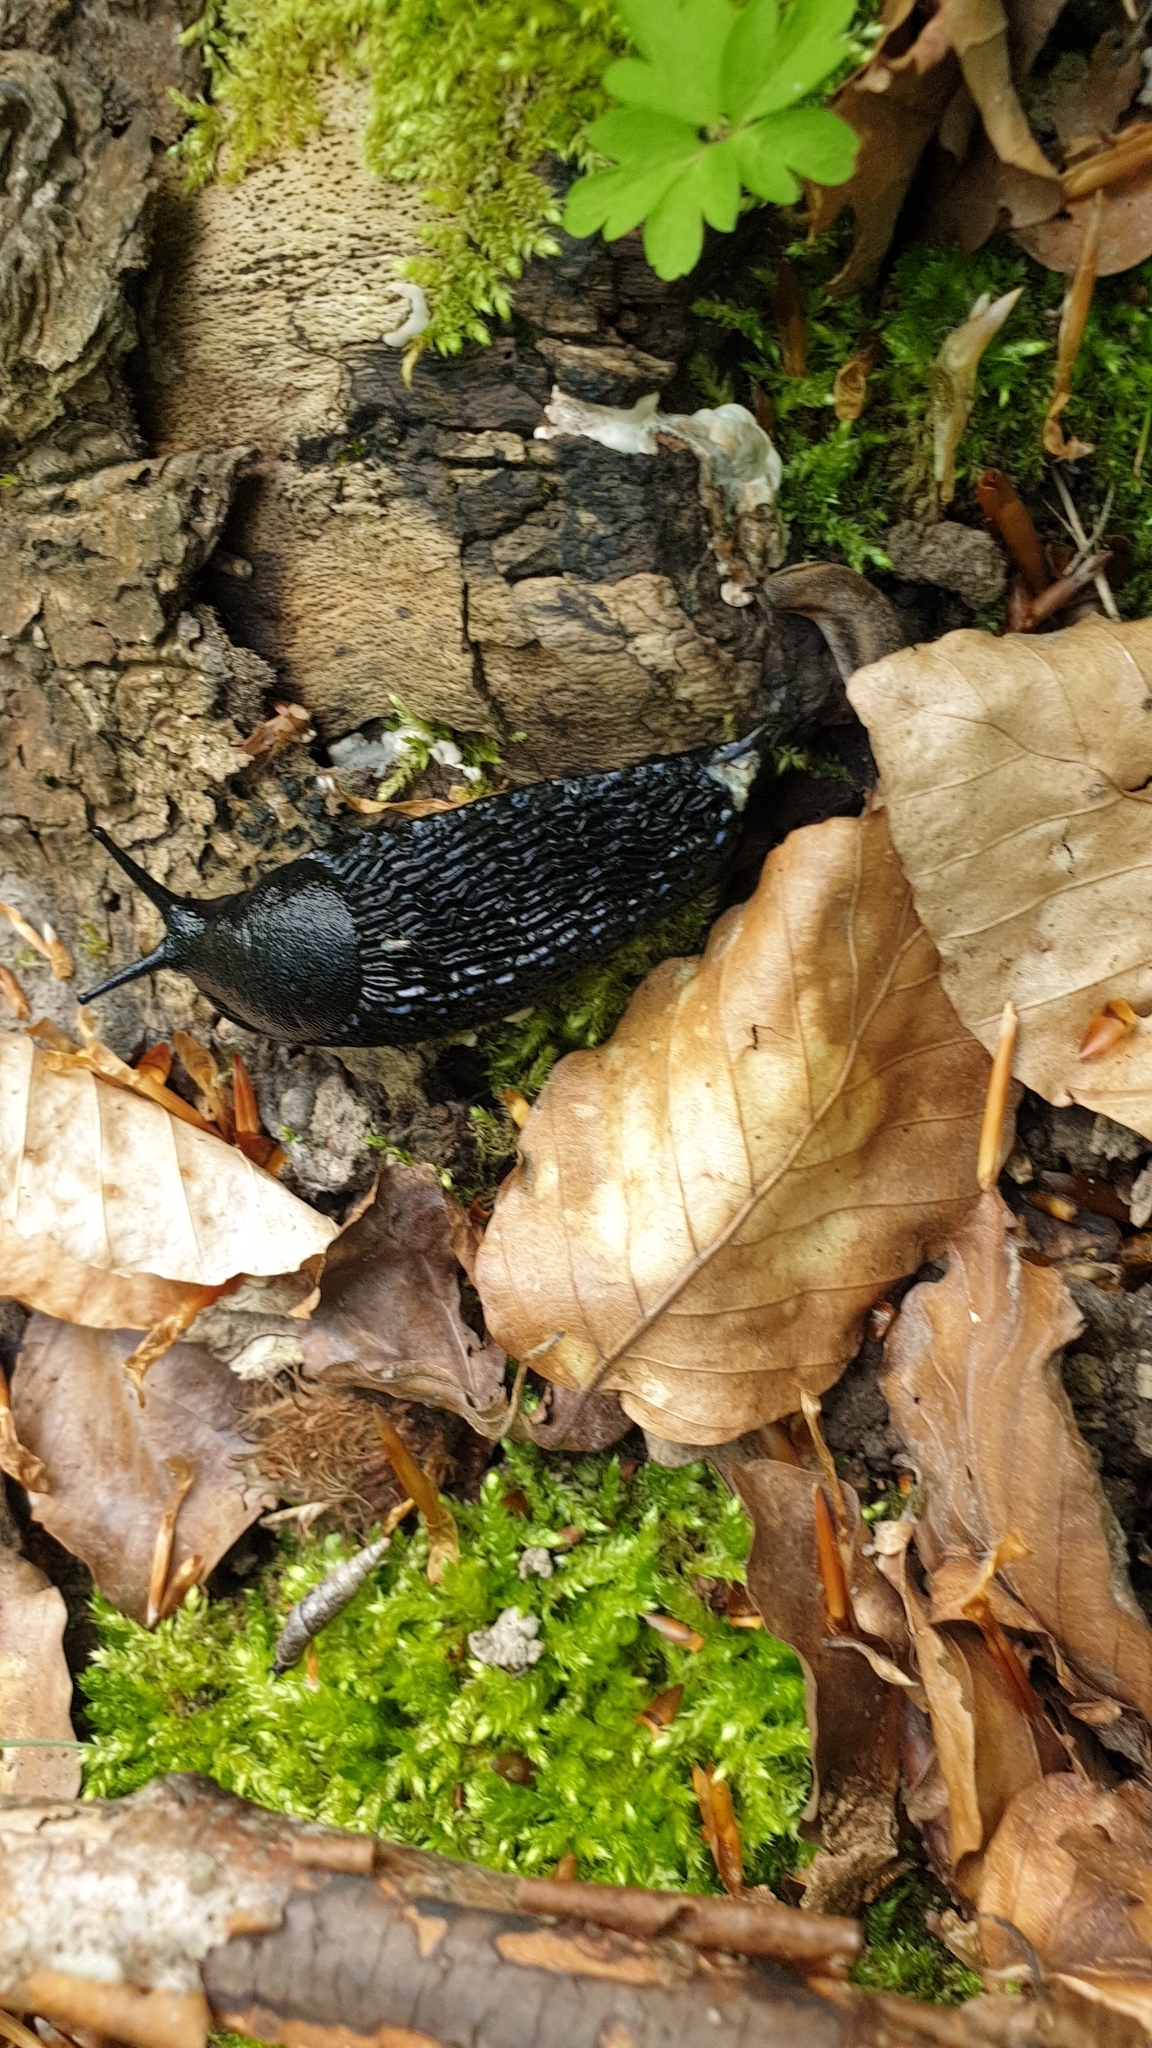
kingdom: Animalia
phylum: Mollusca
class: Gastropoda
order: Stylommatophora
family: Arionidae
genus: Arion
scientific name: Arion ater
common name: Black arion
